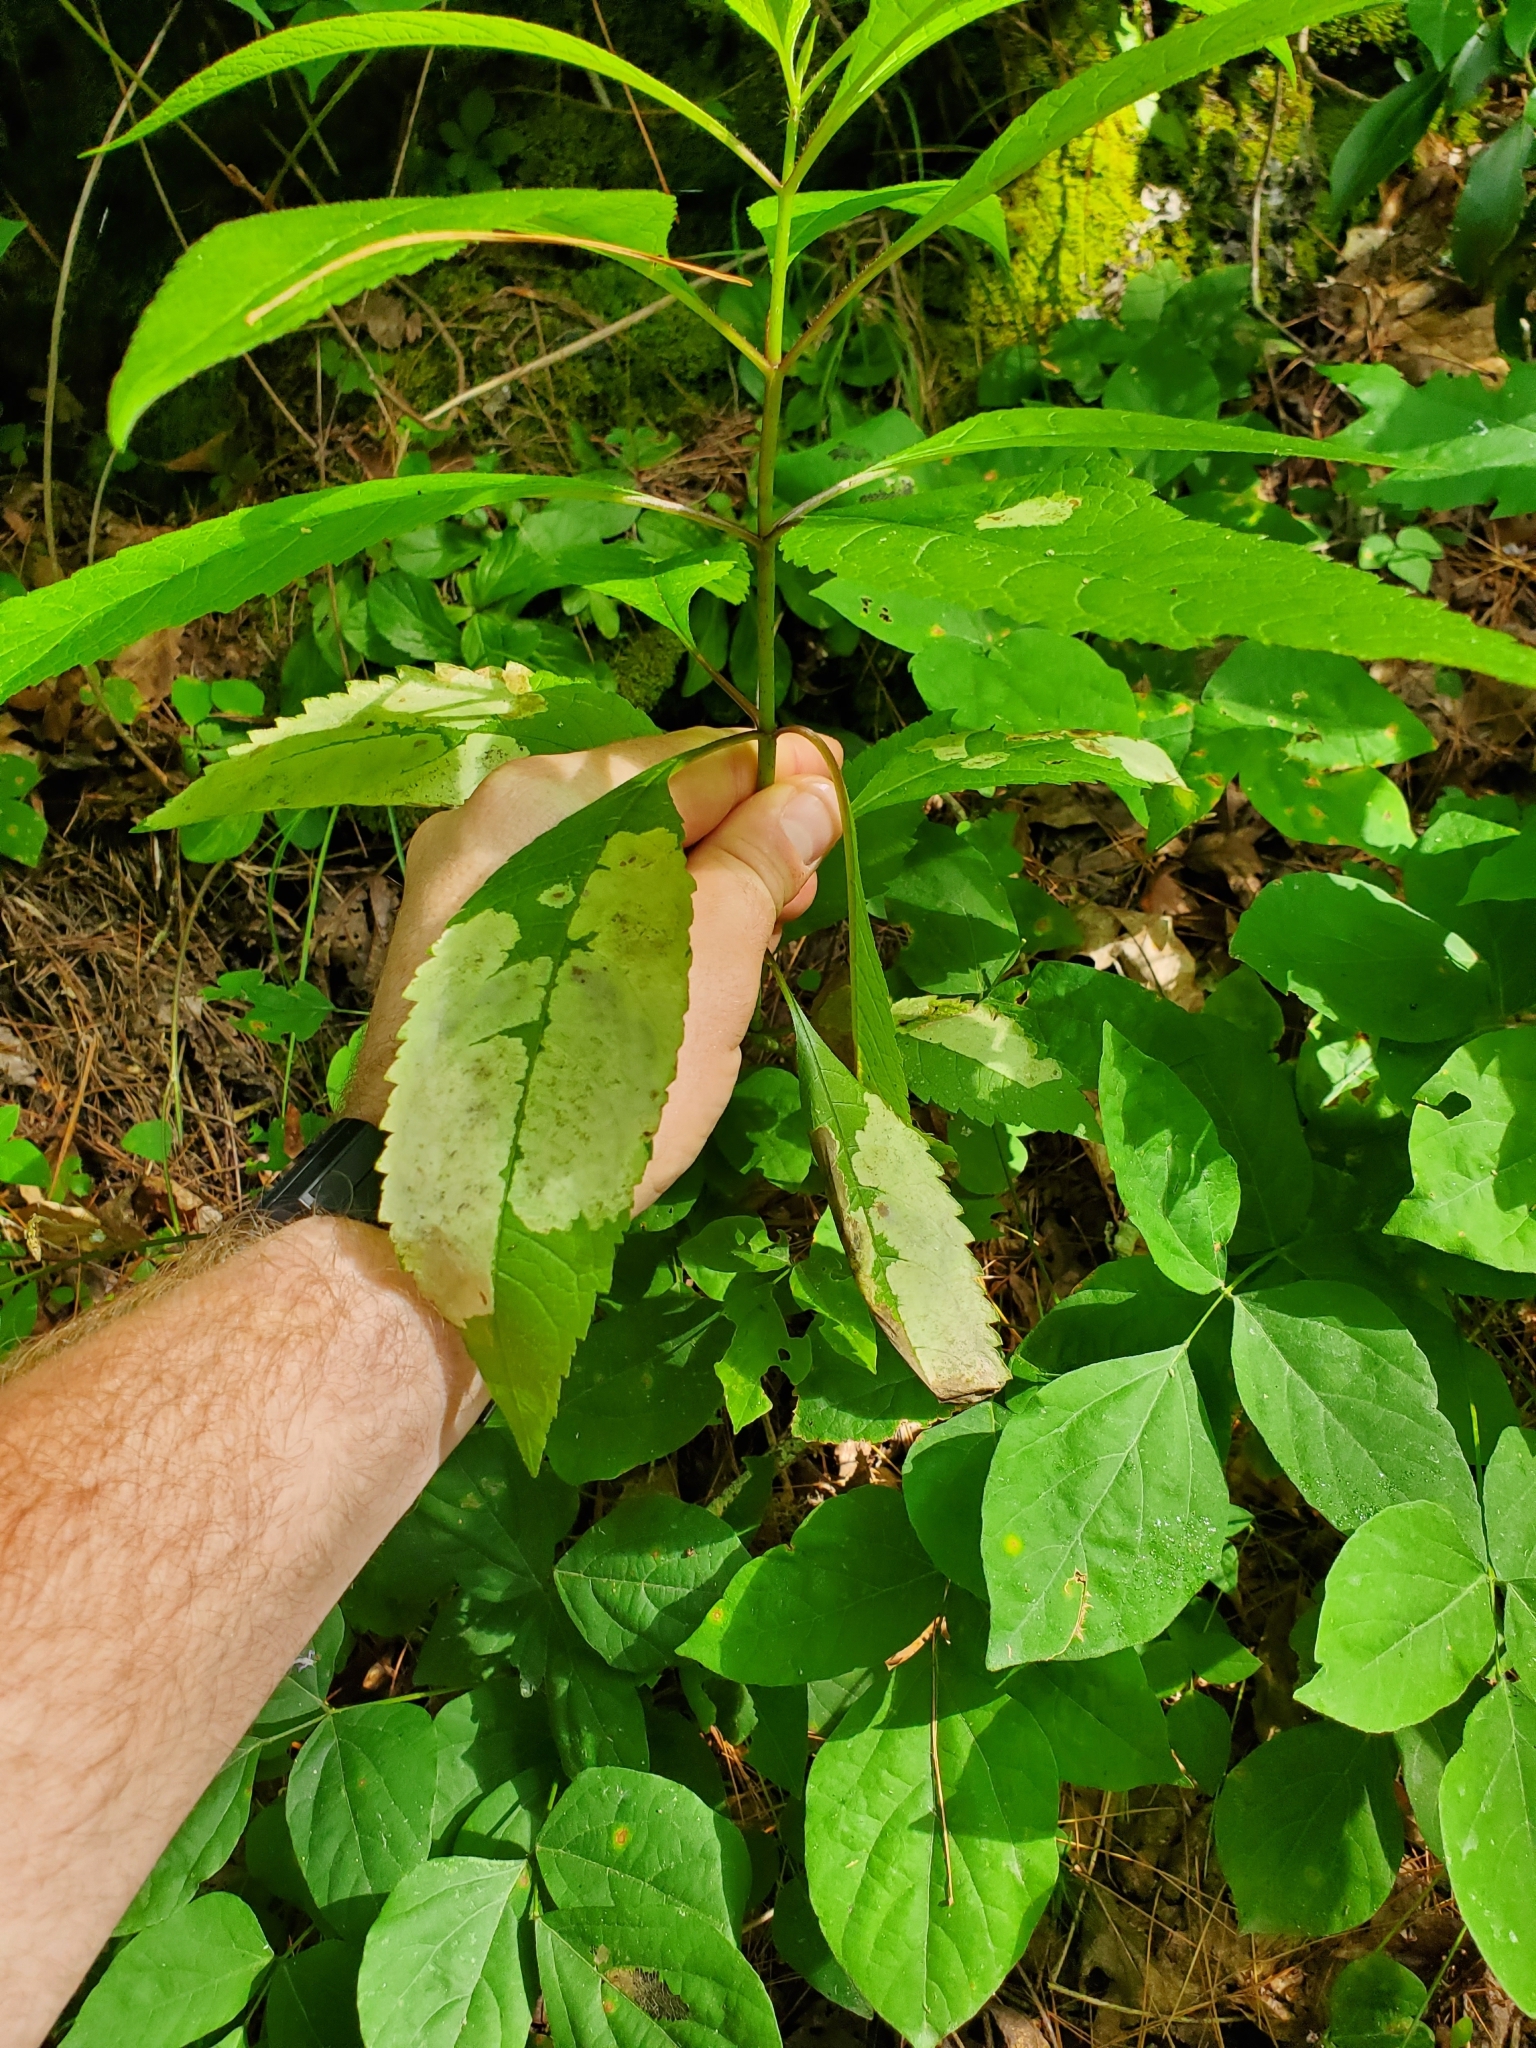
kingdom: Animalia
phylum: Arthropoda
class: Insecta
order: Diptera
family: Agromyzidae
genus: Calycomyza
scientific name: Calycomyza flavinotum
